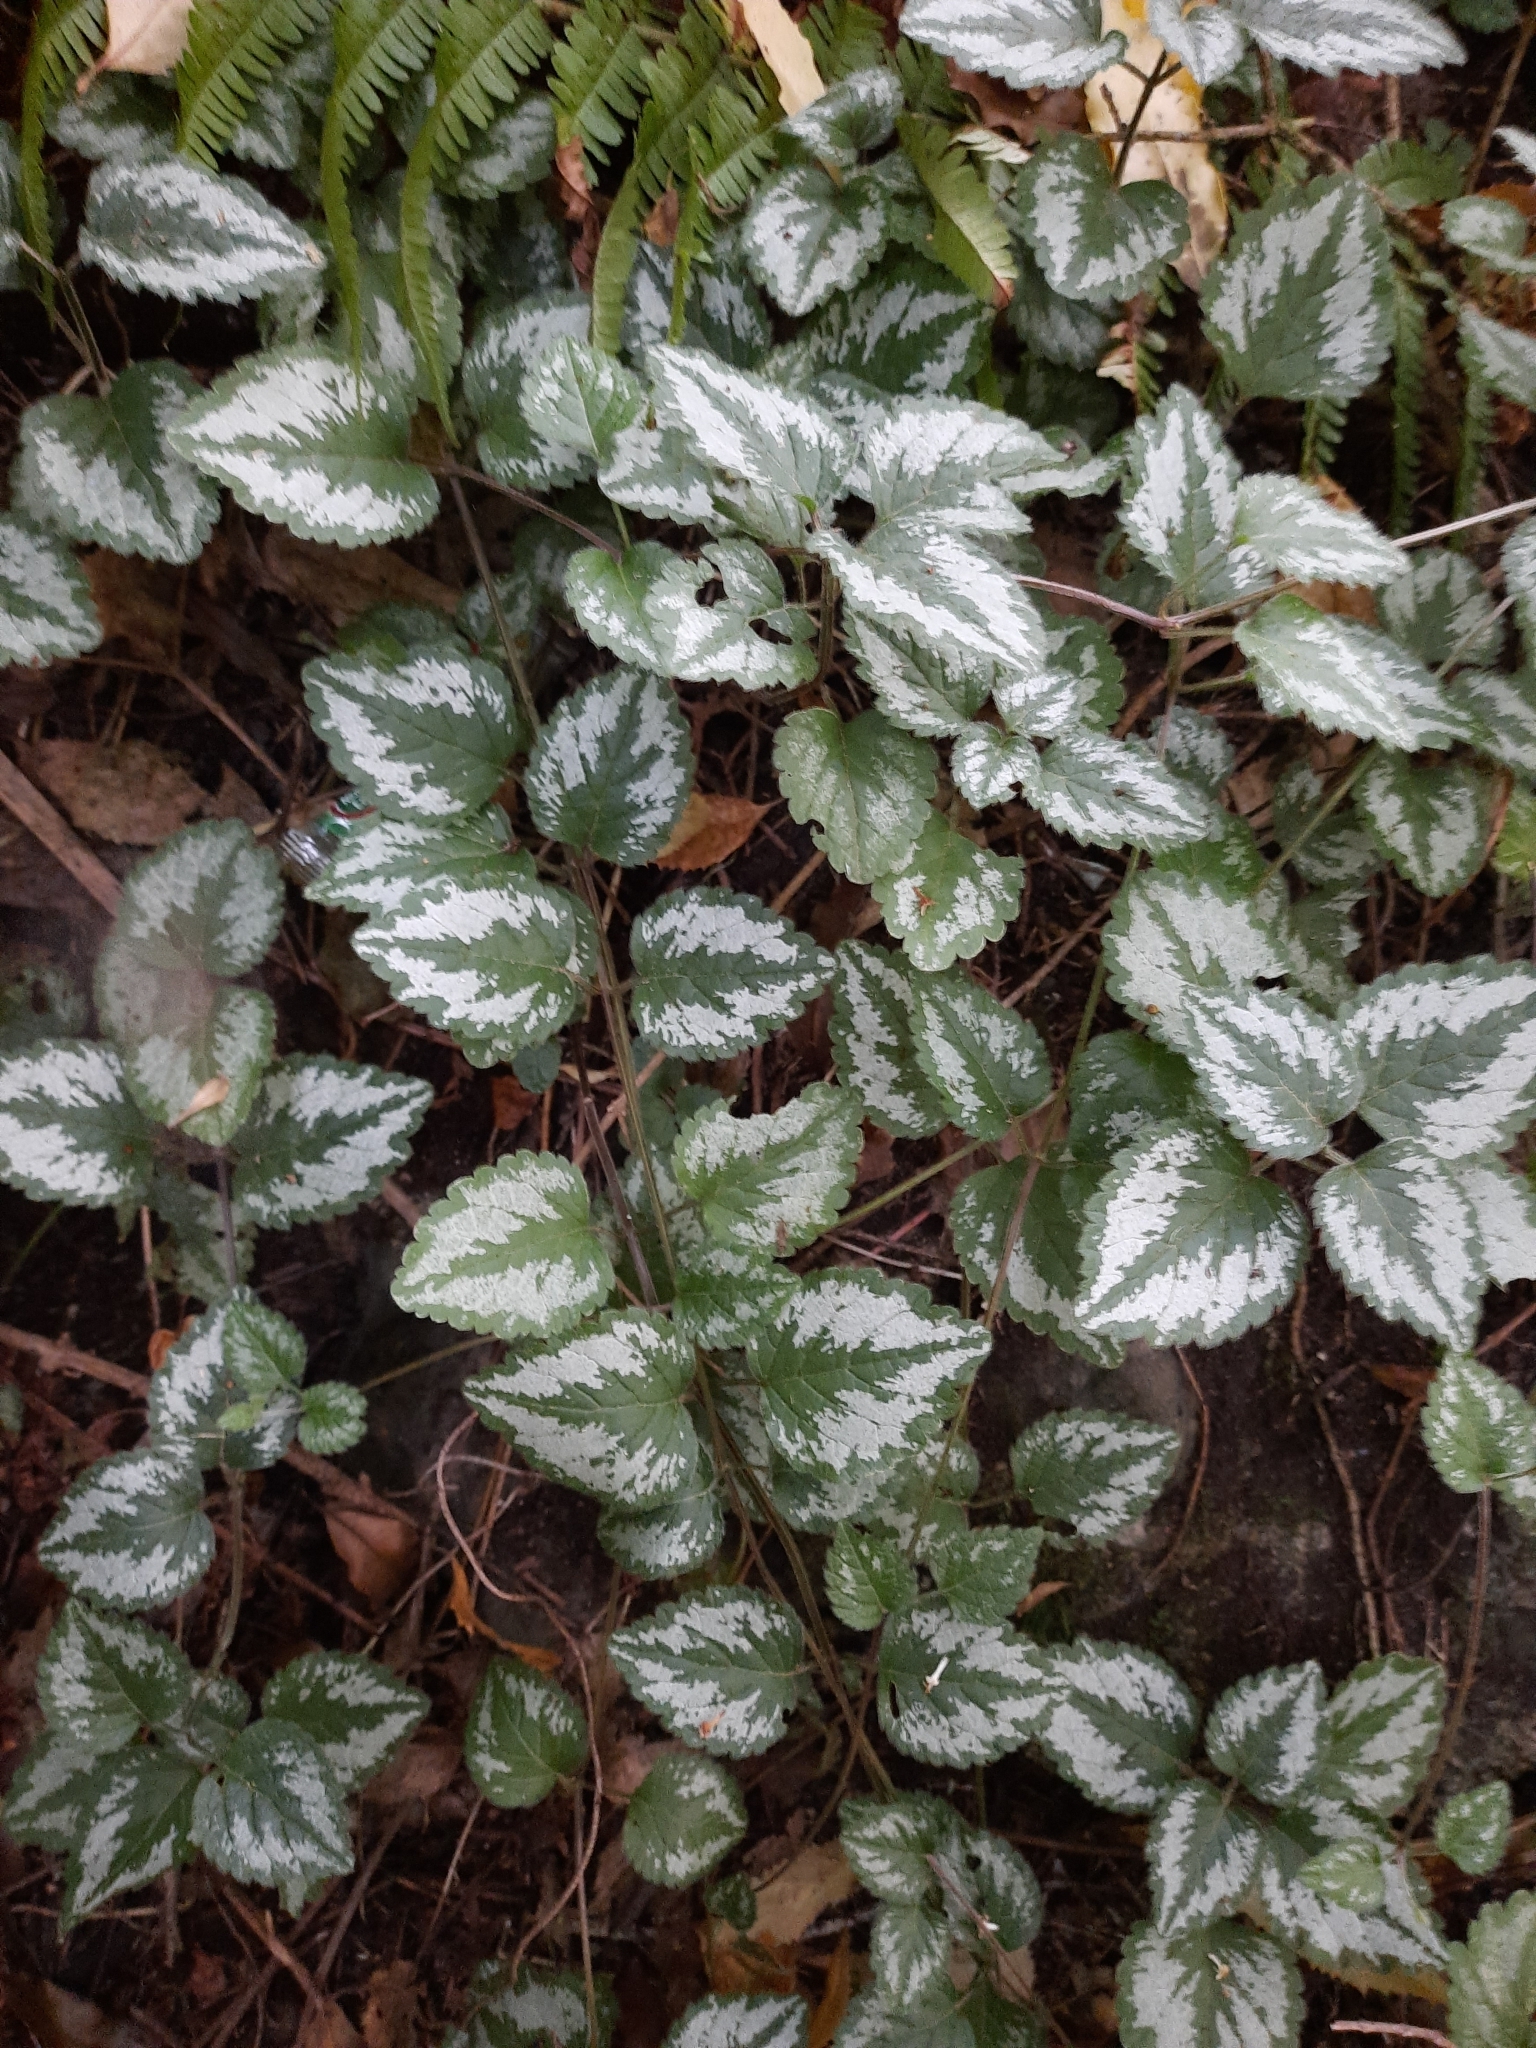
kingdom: Plantae
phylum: Tracheophyta
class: Magnoliopsida
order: Lamiales
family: Lamiaceae
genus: Lamium
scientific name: Lamium galeobdolon
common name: Yellow archangel
